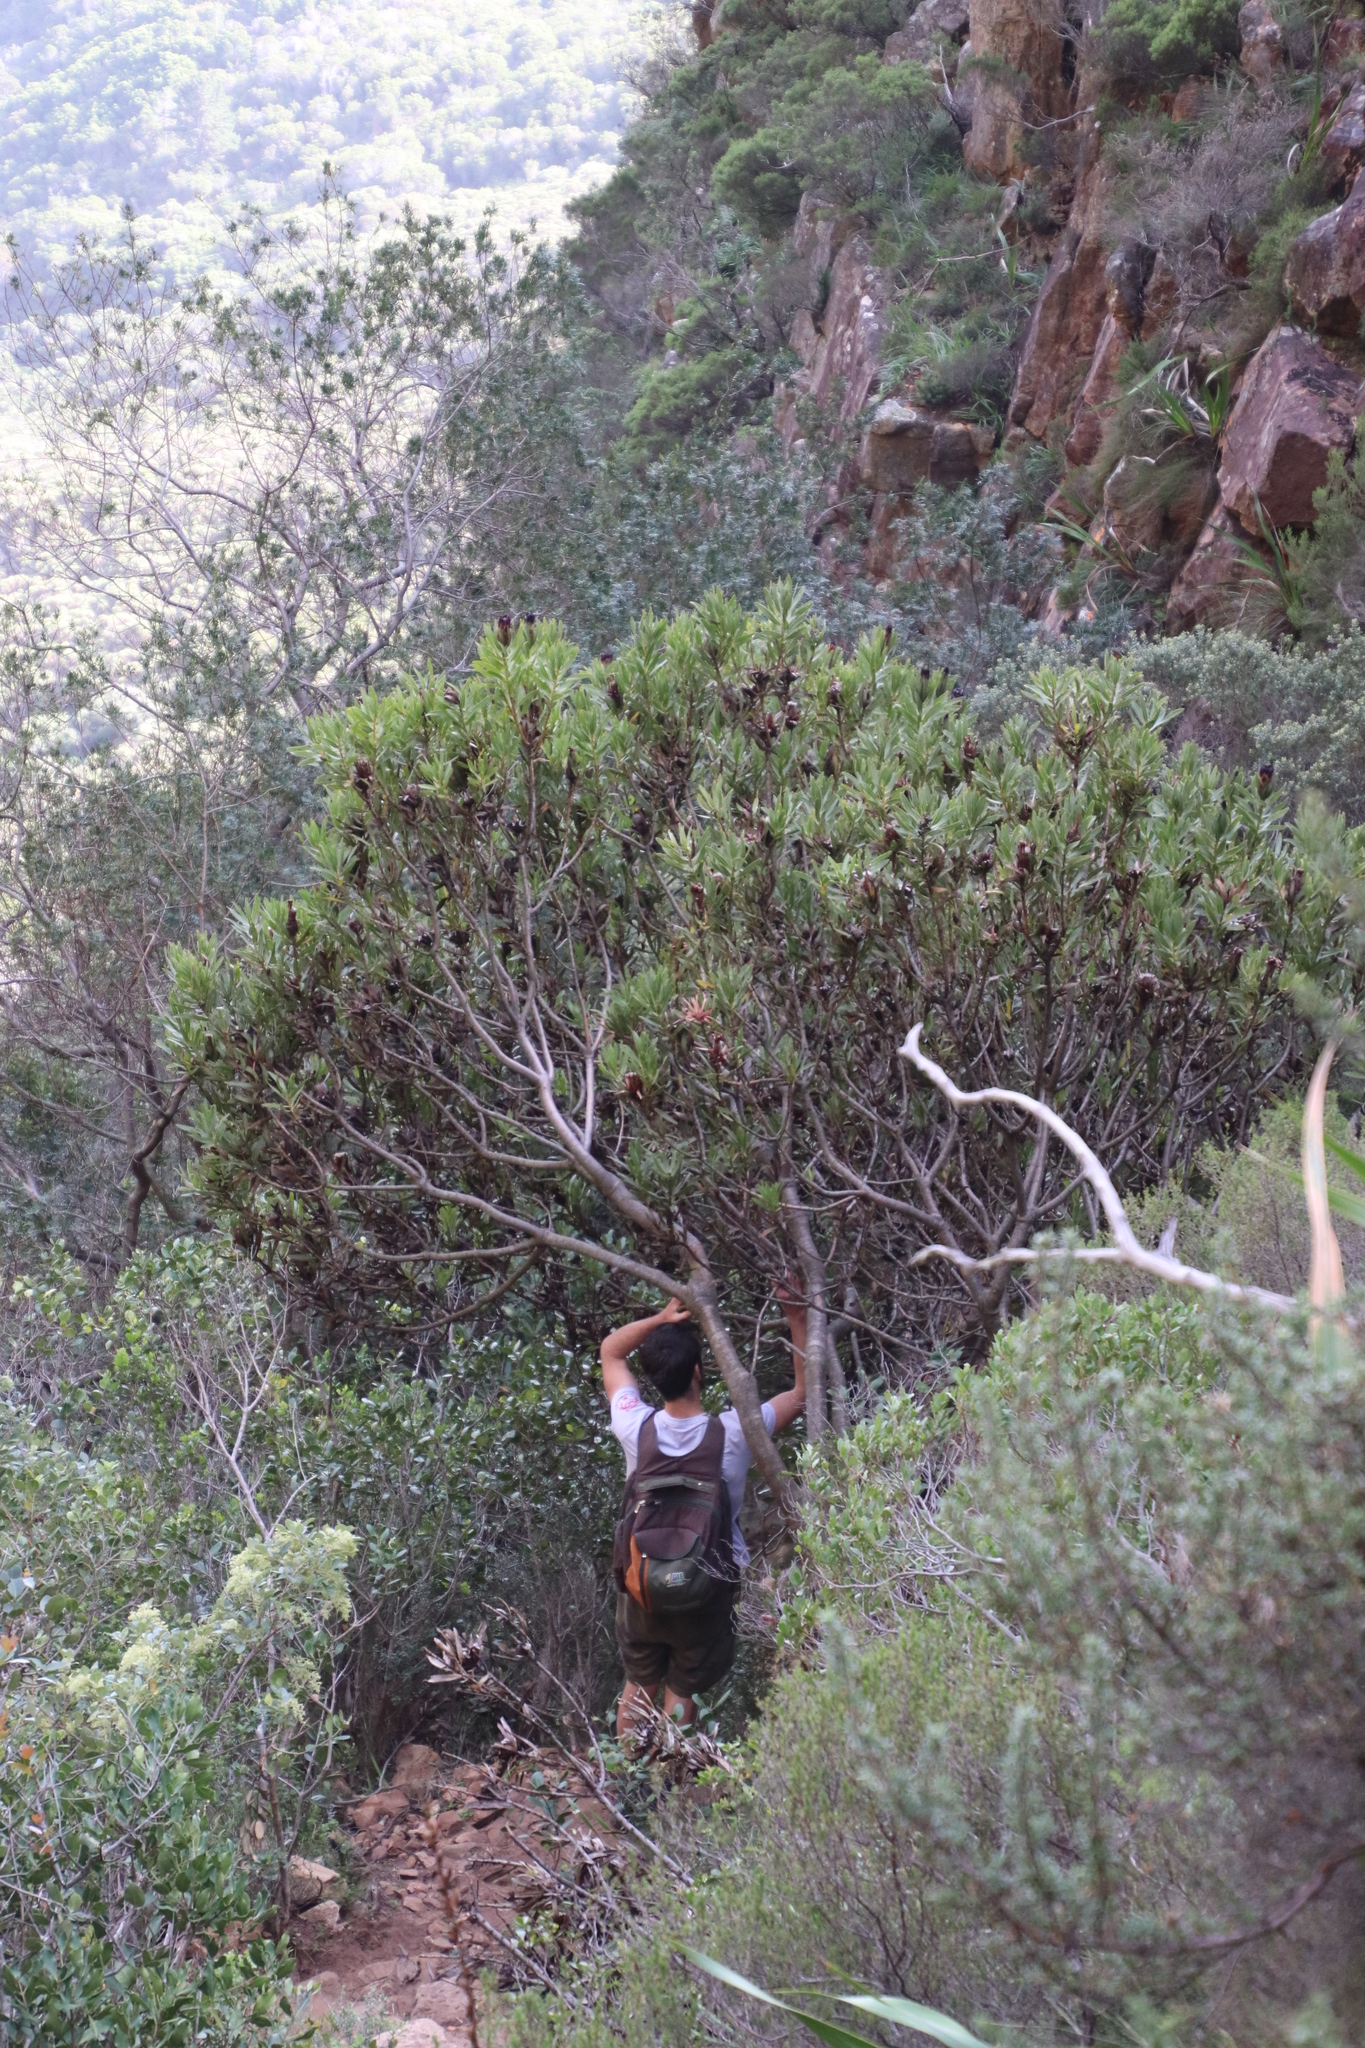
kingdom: Plantae
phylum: Tracheophyta
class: Magnoliopsida
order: Proteales
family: Proteaceae
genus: Protea
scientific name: Protea lepidocarpodendron
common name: Black-bearded protea
